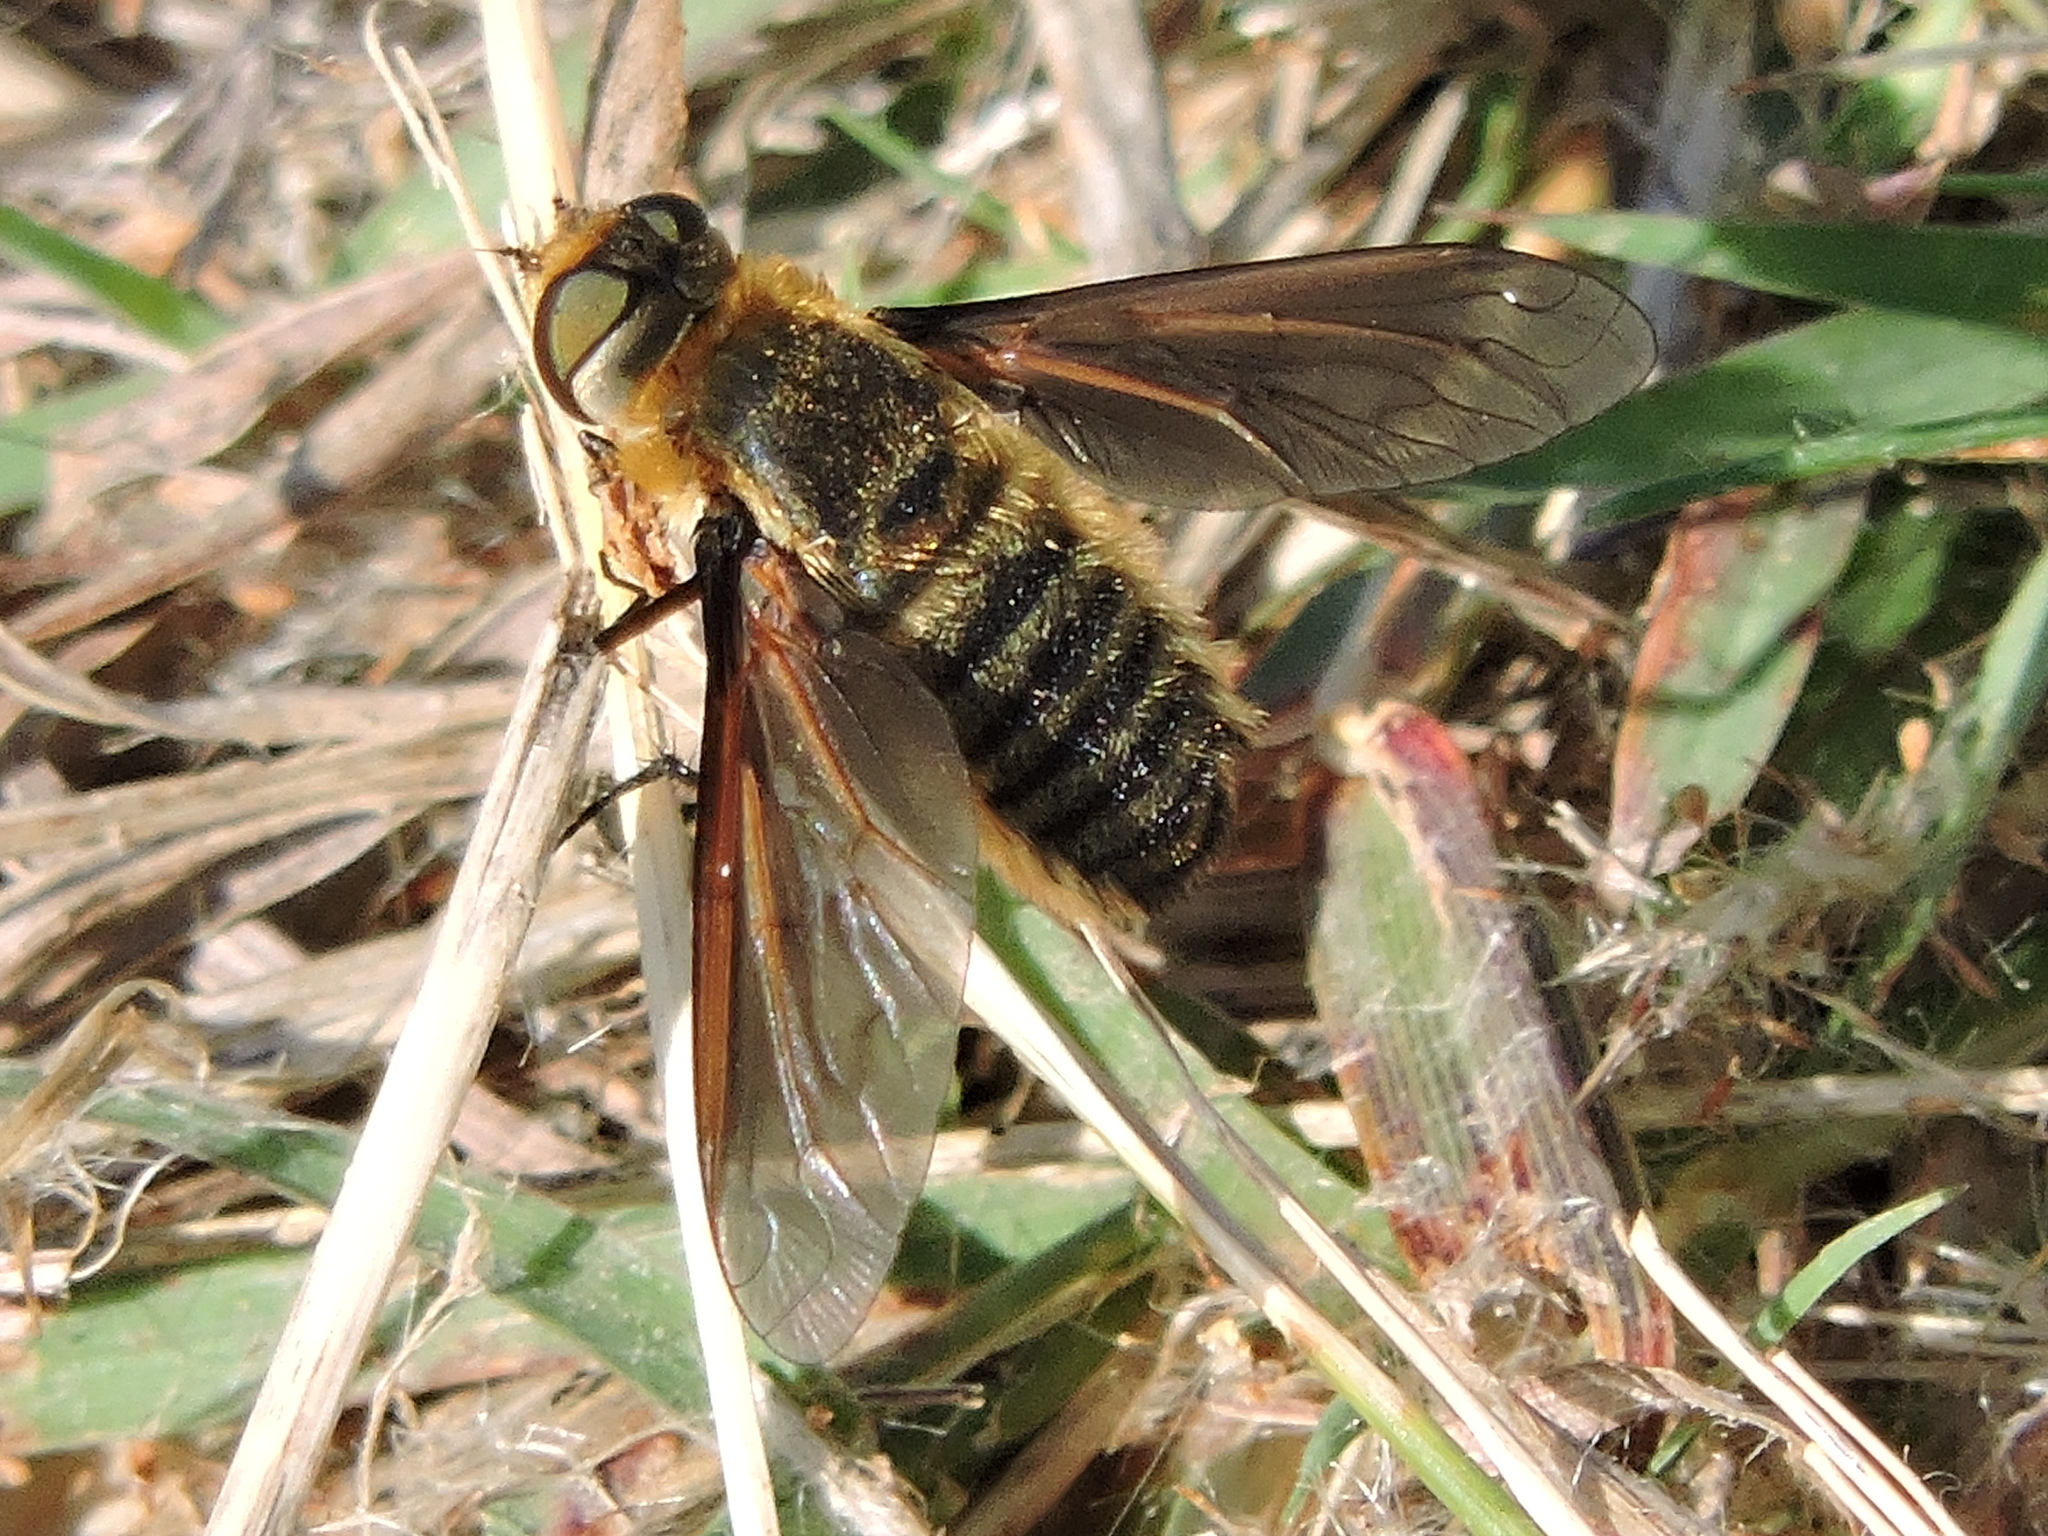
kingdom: Animalia
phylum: Arthropoda
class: Insecta
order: Diptera
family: Bombyliidae
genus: Poecilanthrax
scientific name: Poecilanthrax lucifer
